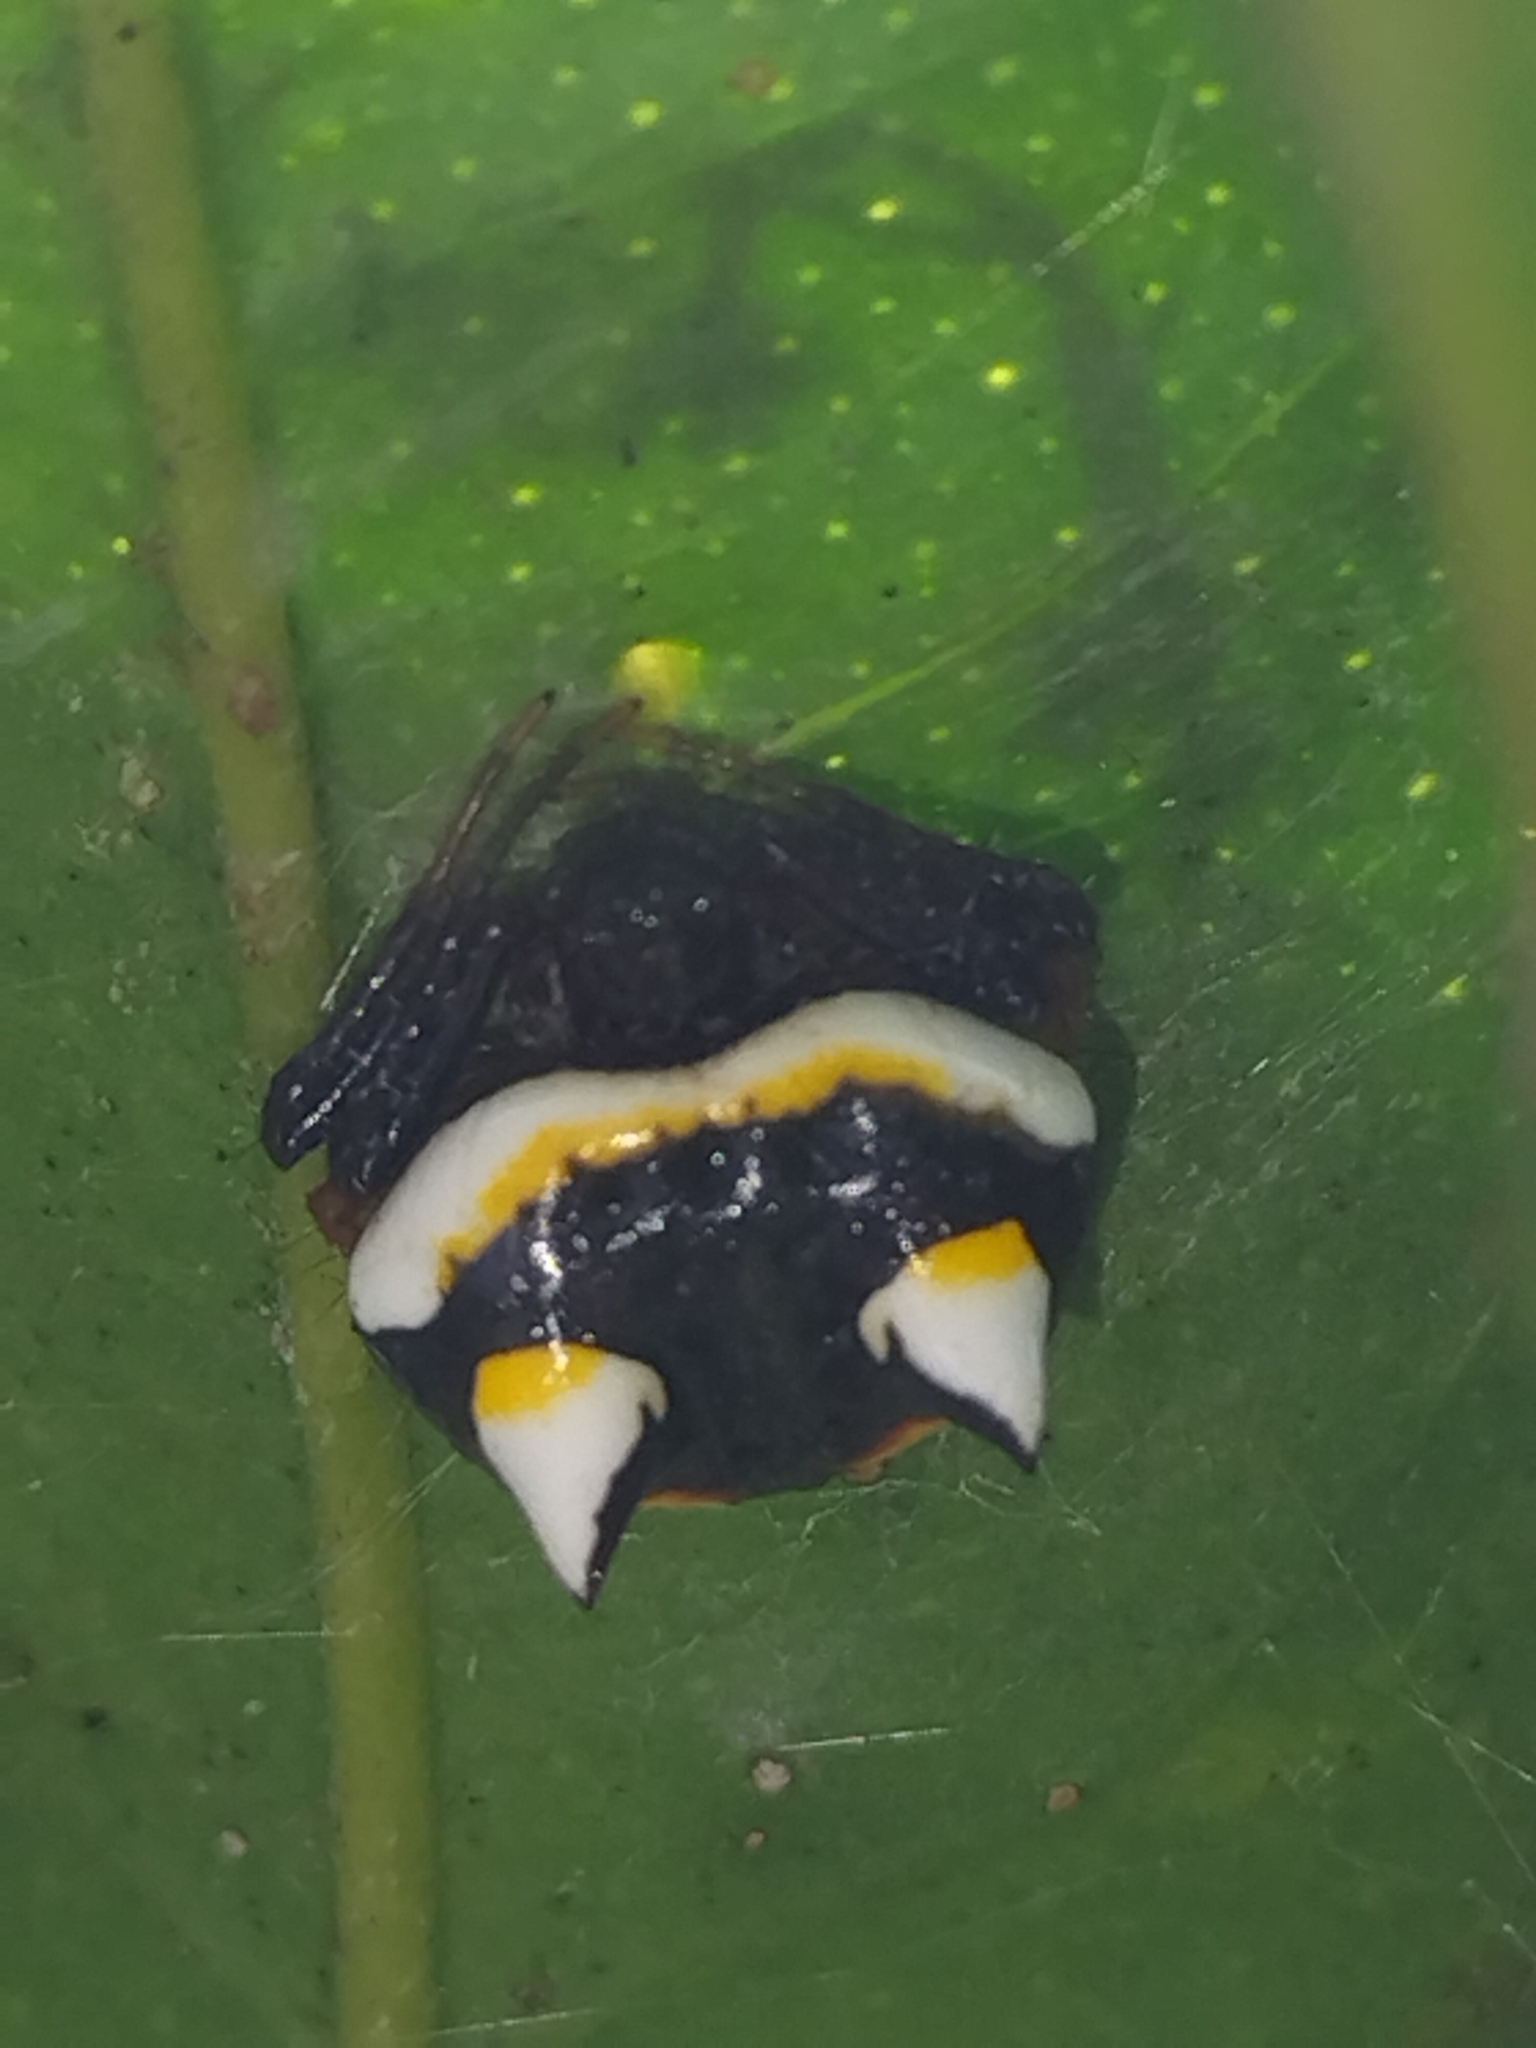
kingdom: Animalia
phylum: Arthropoda
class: Arachnida
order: Araneae
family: Araneidae
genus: Poecilopachys
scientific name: Poecilopachys australasia
